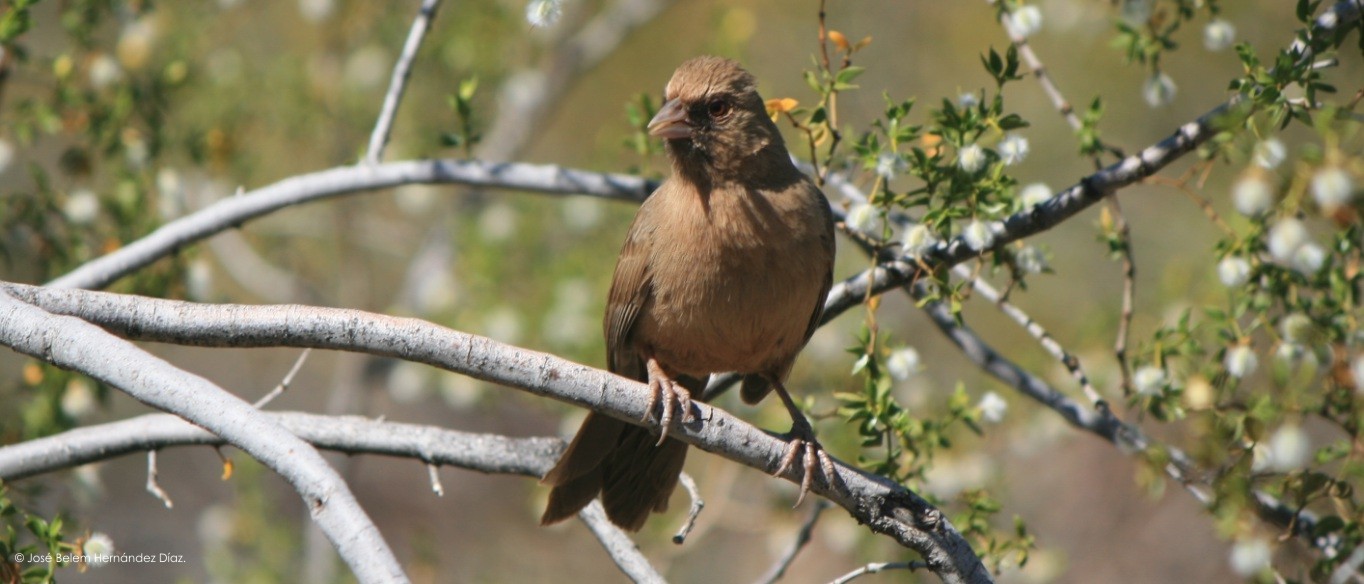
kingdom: Animalia
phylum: Chordata
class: Aves
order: Passeriformes
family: Passerellidae
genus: Melozone
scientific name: Melozone aberti
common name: Abert's towhee
